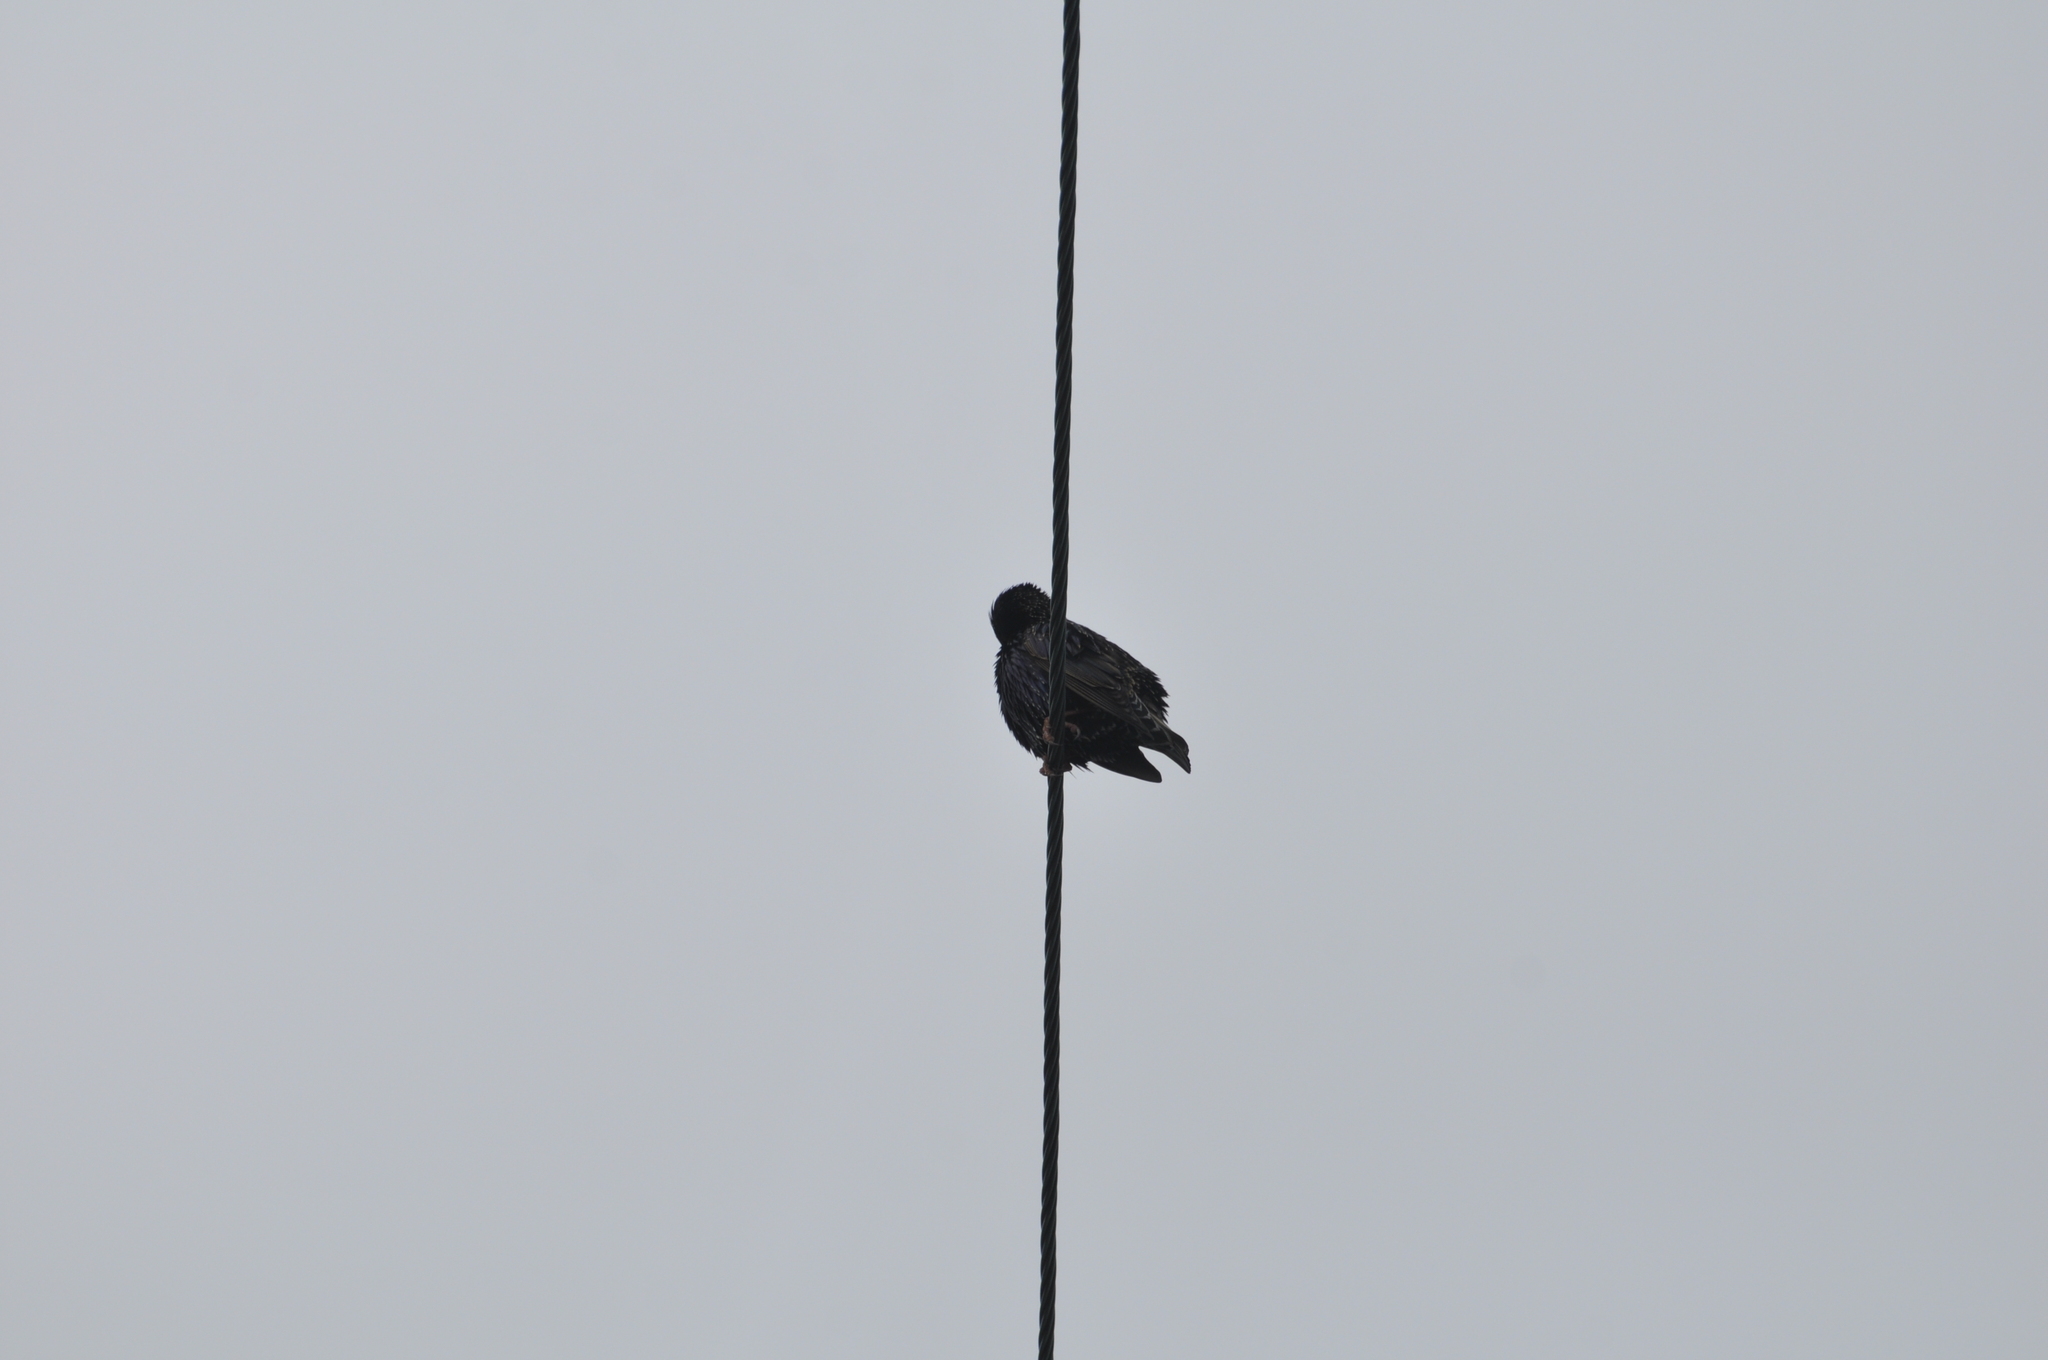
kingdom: Animalia
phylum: Chordata
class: Aves
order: Passeriformes
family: Sturnidae
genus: Sturnus
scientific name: Sturnus vulgaris
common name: Common starling
